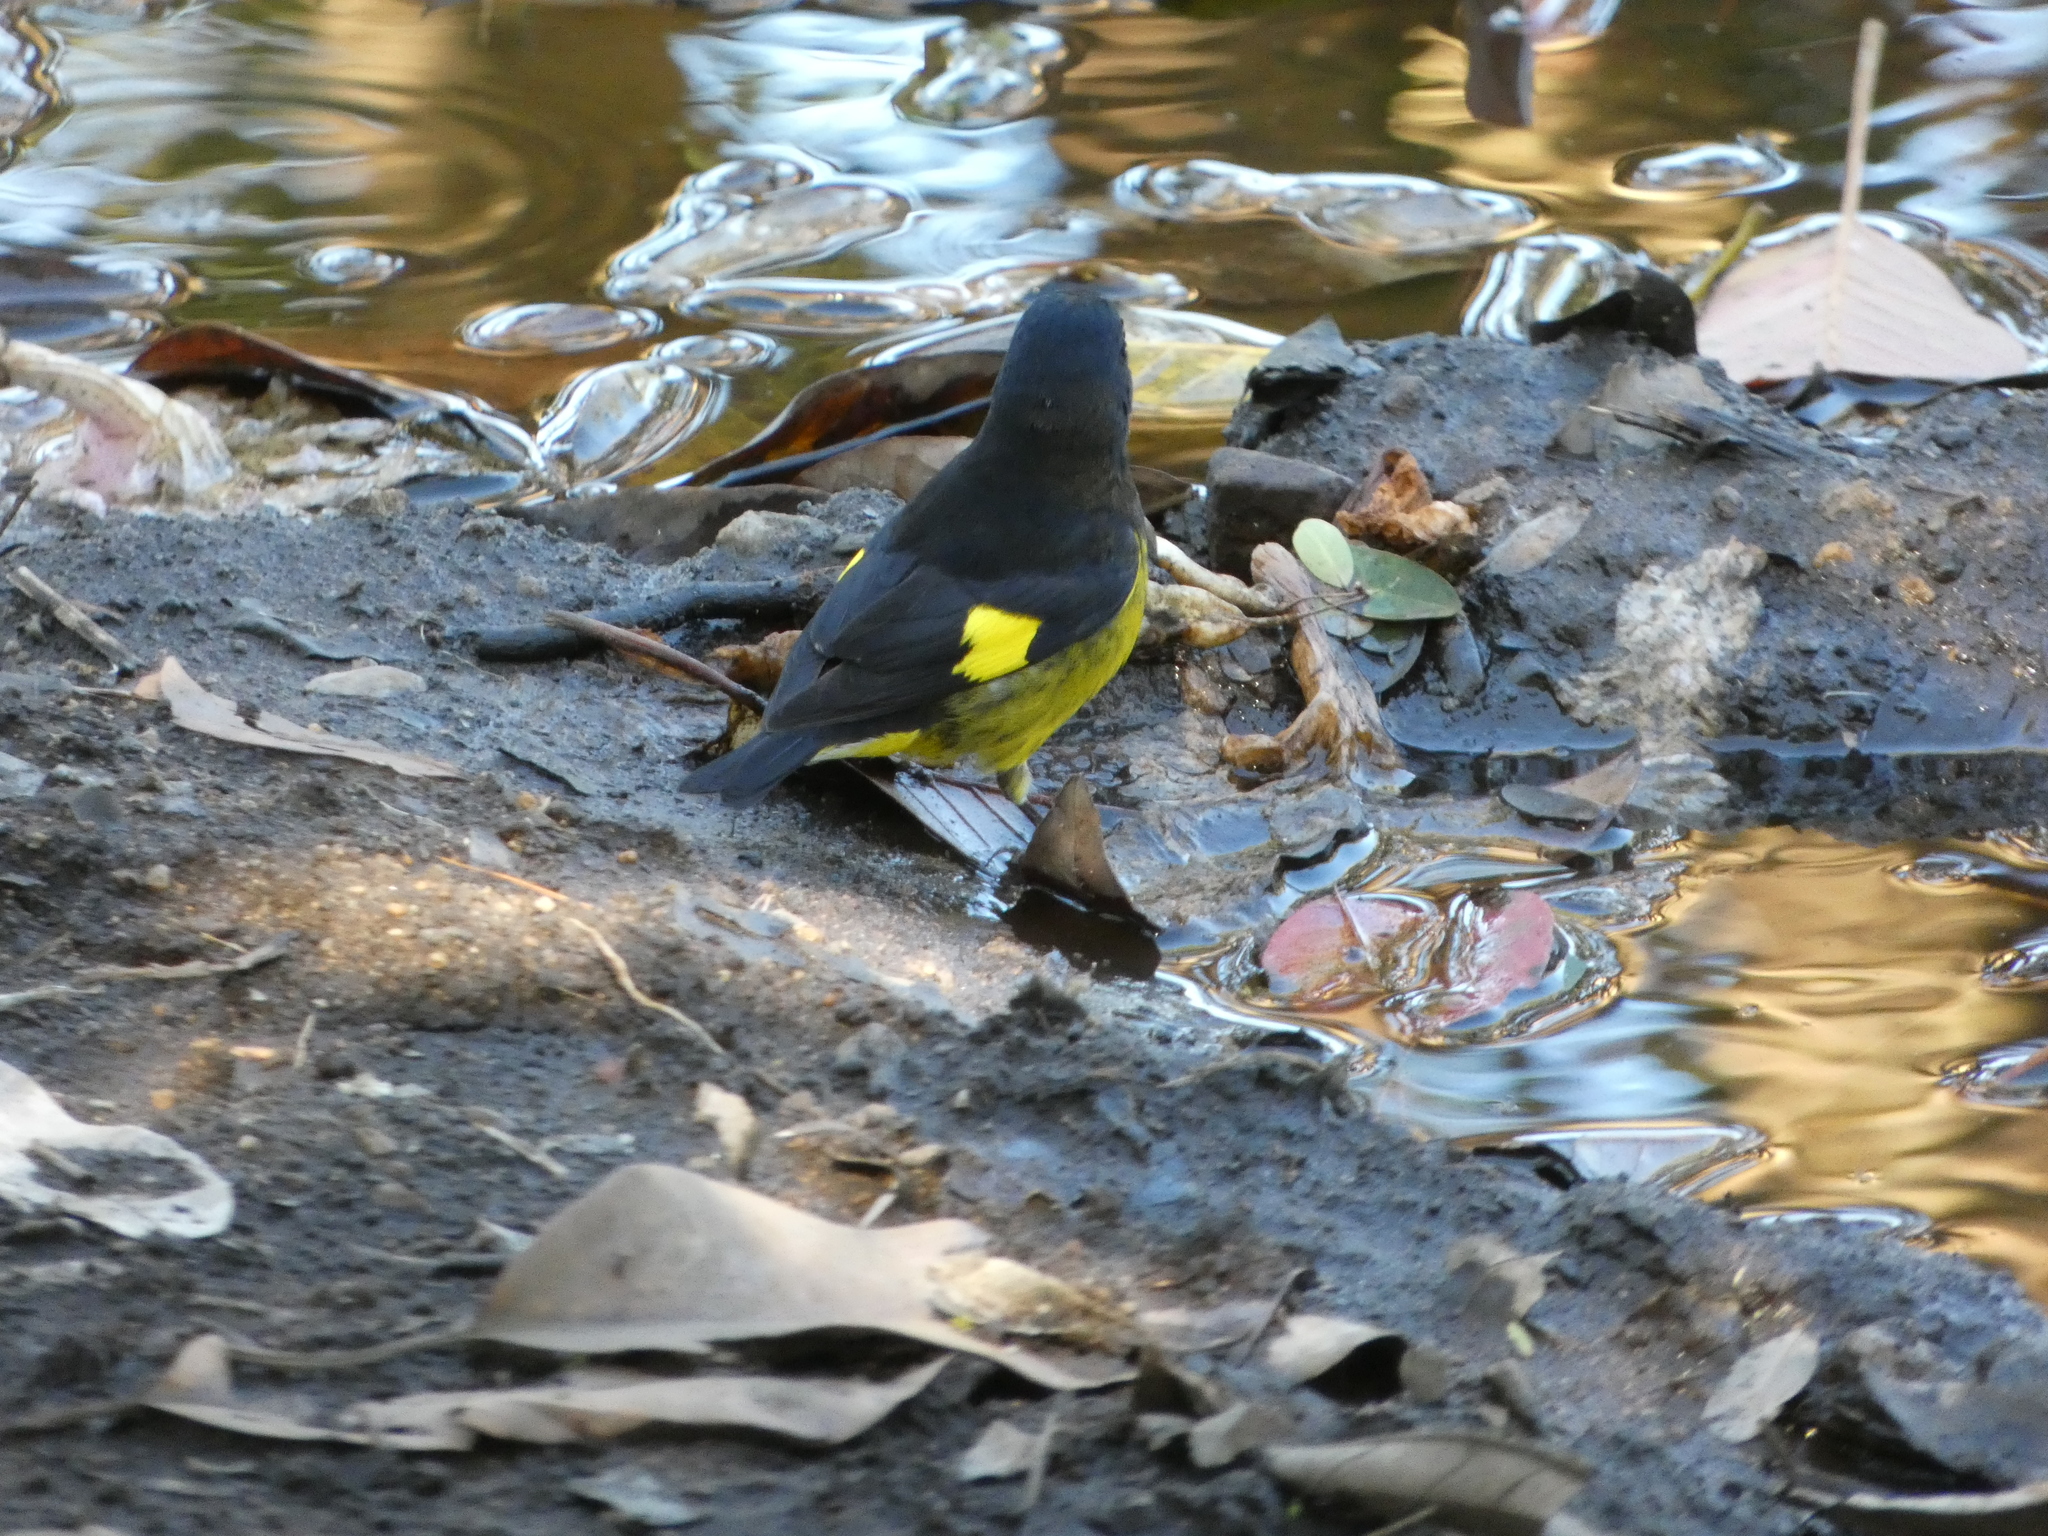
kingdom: Animalia
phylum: Chordata
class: Aves
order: Passeriformes
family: Fringillidae
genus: Spinus
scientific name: Spinus xanthogastrus
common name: Yellow-bellied siskin
